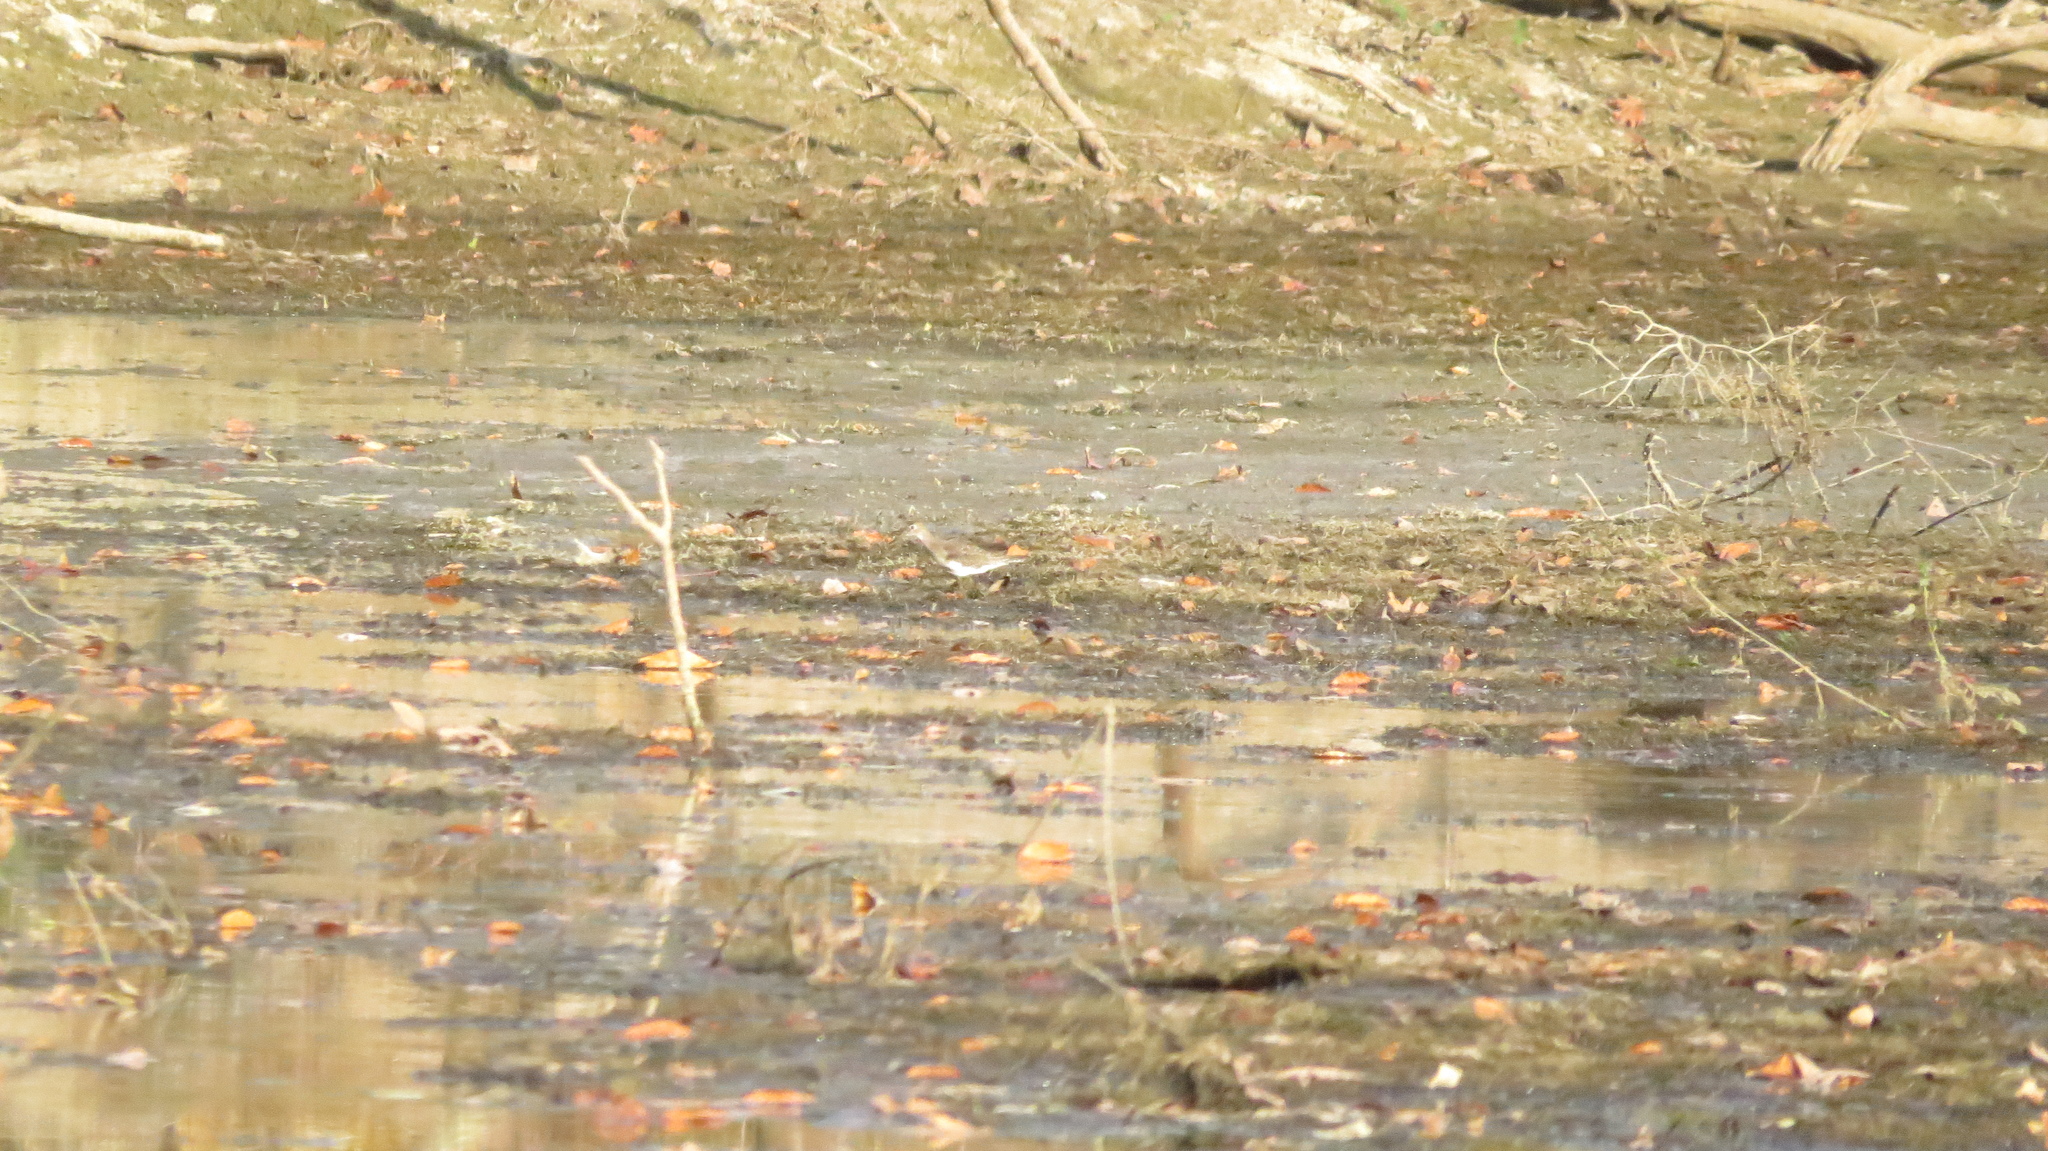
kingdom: Animalia
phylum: Chordata
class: Aves
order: Charadriiformes
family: Scolopacidae
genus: Tringa
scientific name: Tringa solitaria
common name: Solitary sandpiper
